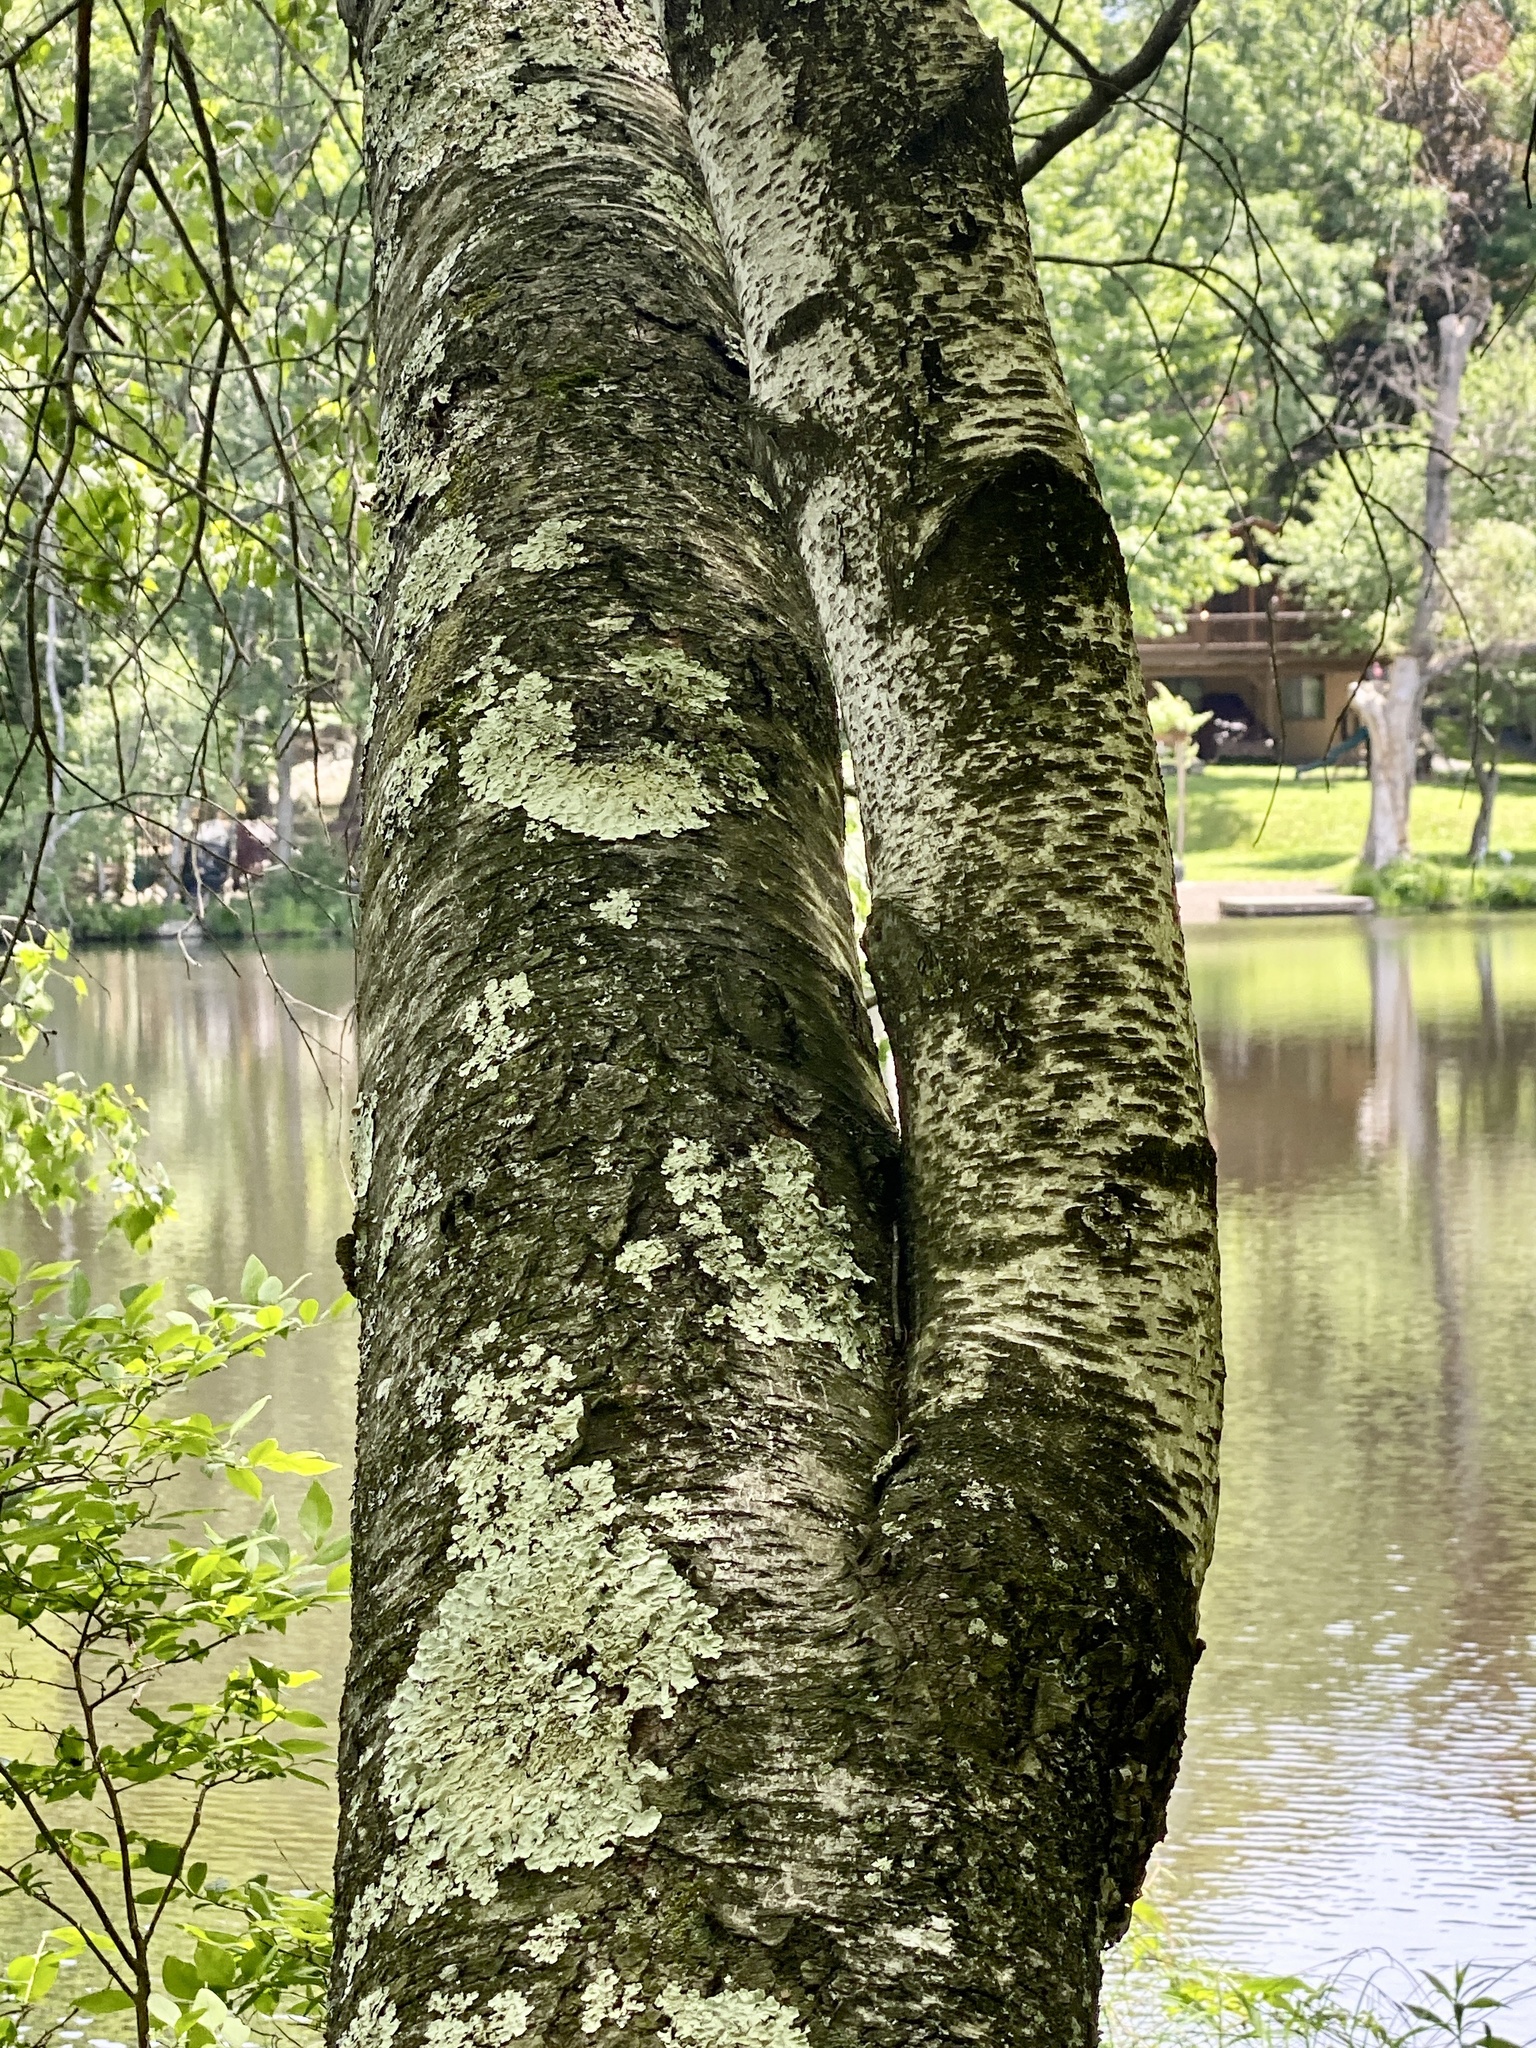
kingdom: Plantae
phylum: Tracheophyta
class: Magnoliopsida
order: Fagales
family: Betulaceae
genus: Betula
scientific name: Betula populifolia
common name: Fire birch
